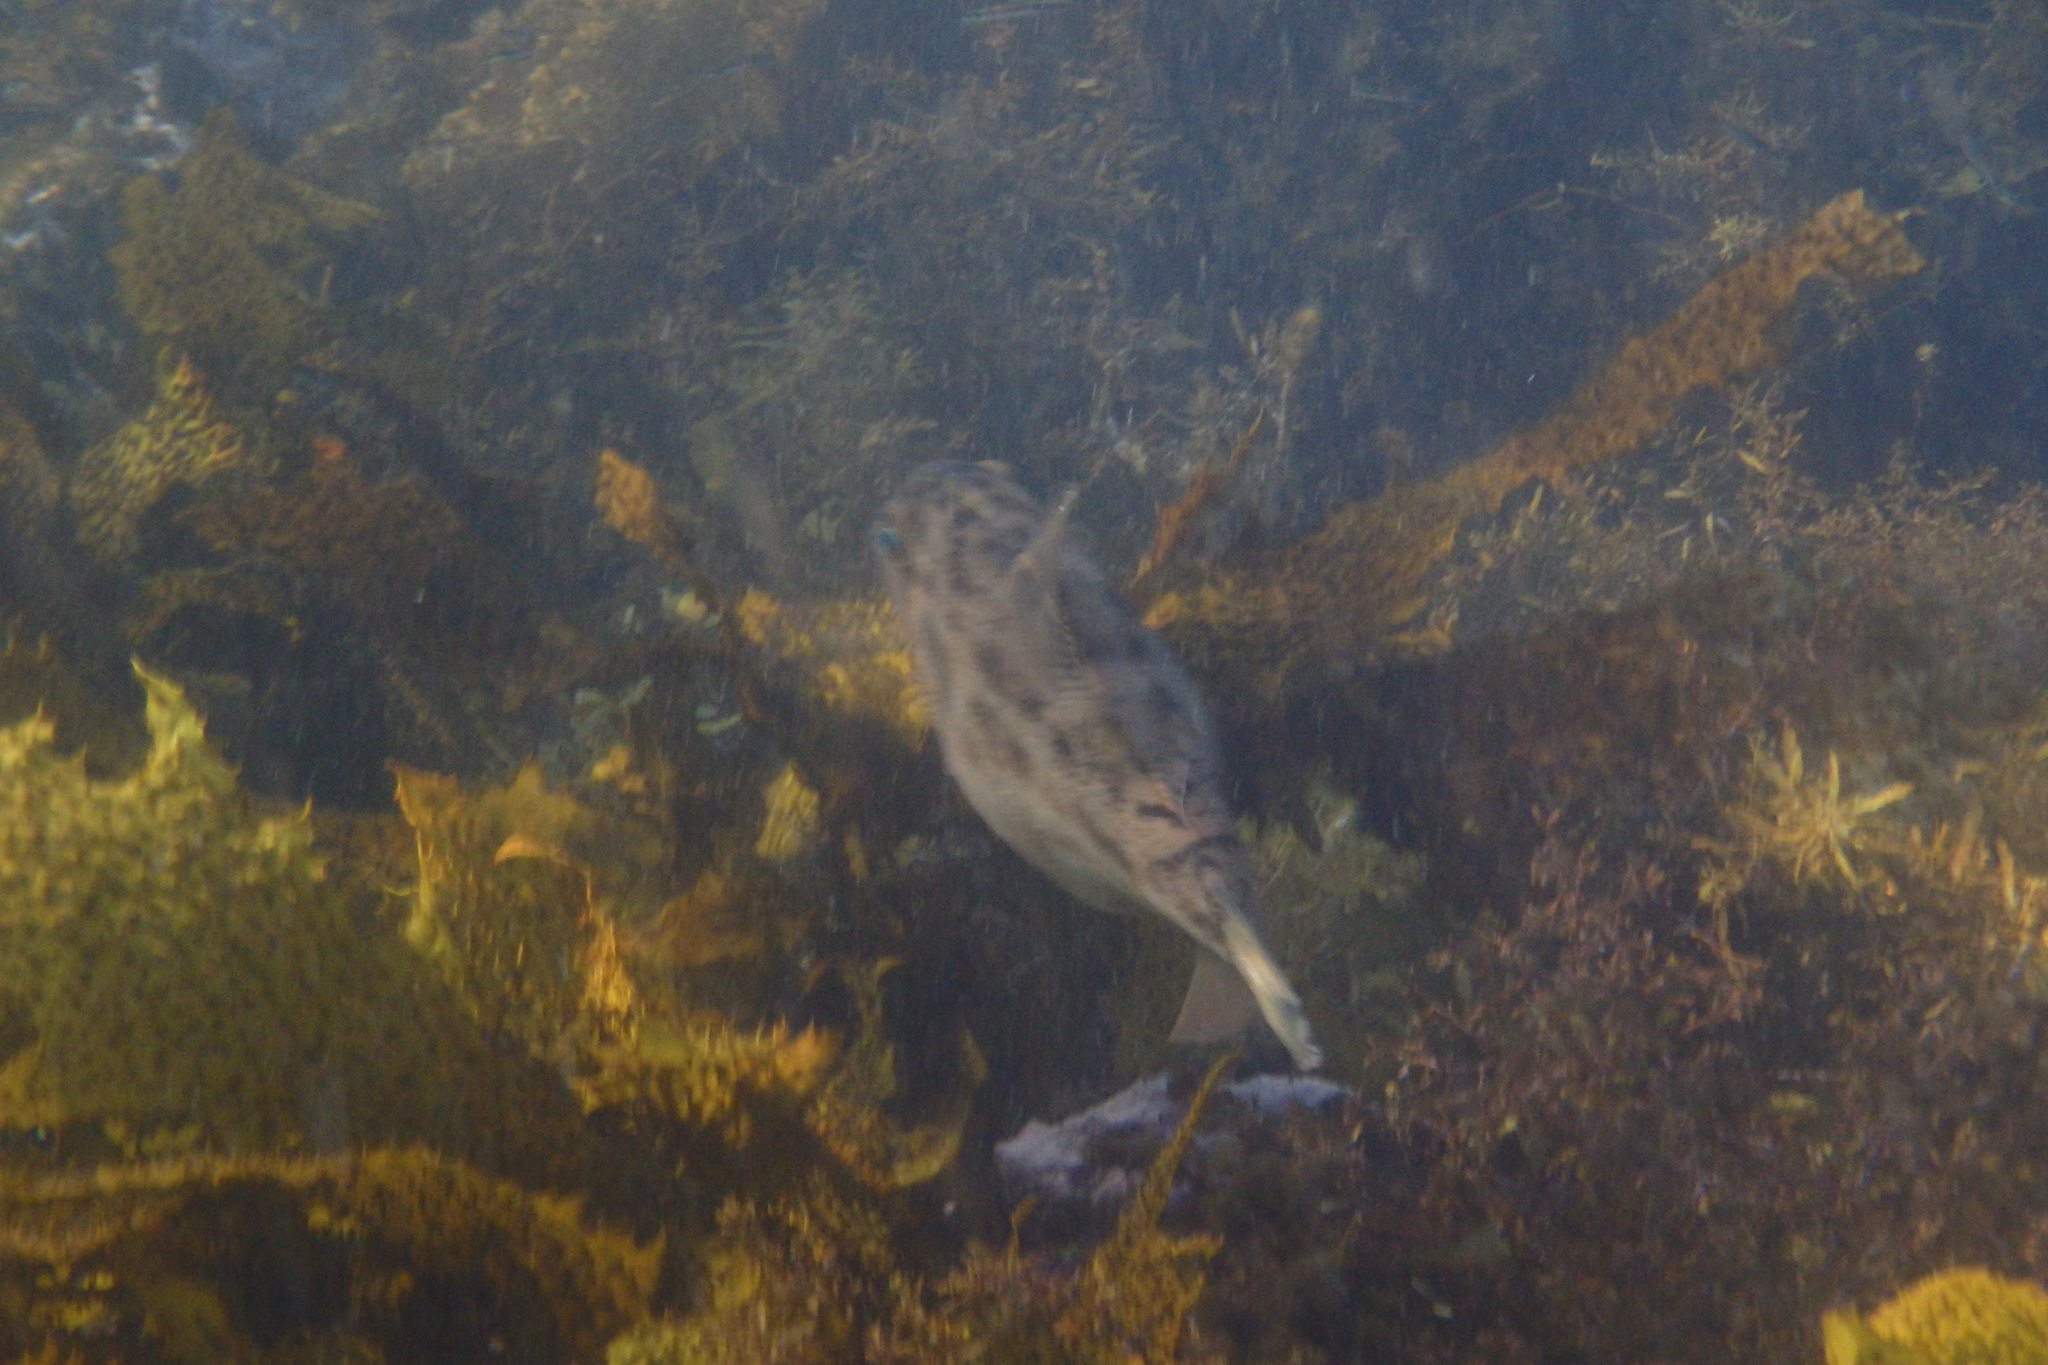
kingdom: Animalia
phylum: Chordata
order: Tetraodontiformes
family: Monacanthidae
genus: Scobinichthys
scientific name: Scobinichthys granulatus
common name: Rough leatherjacket
